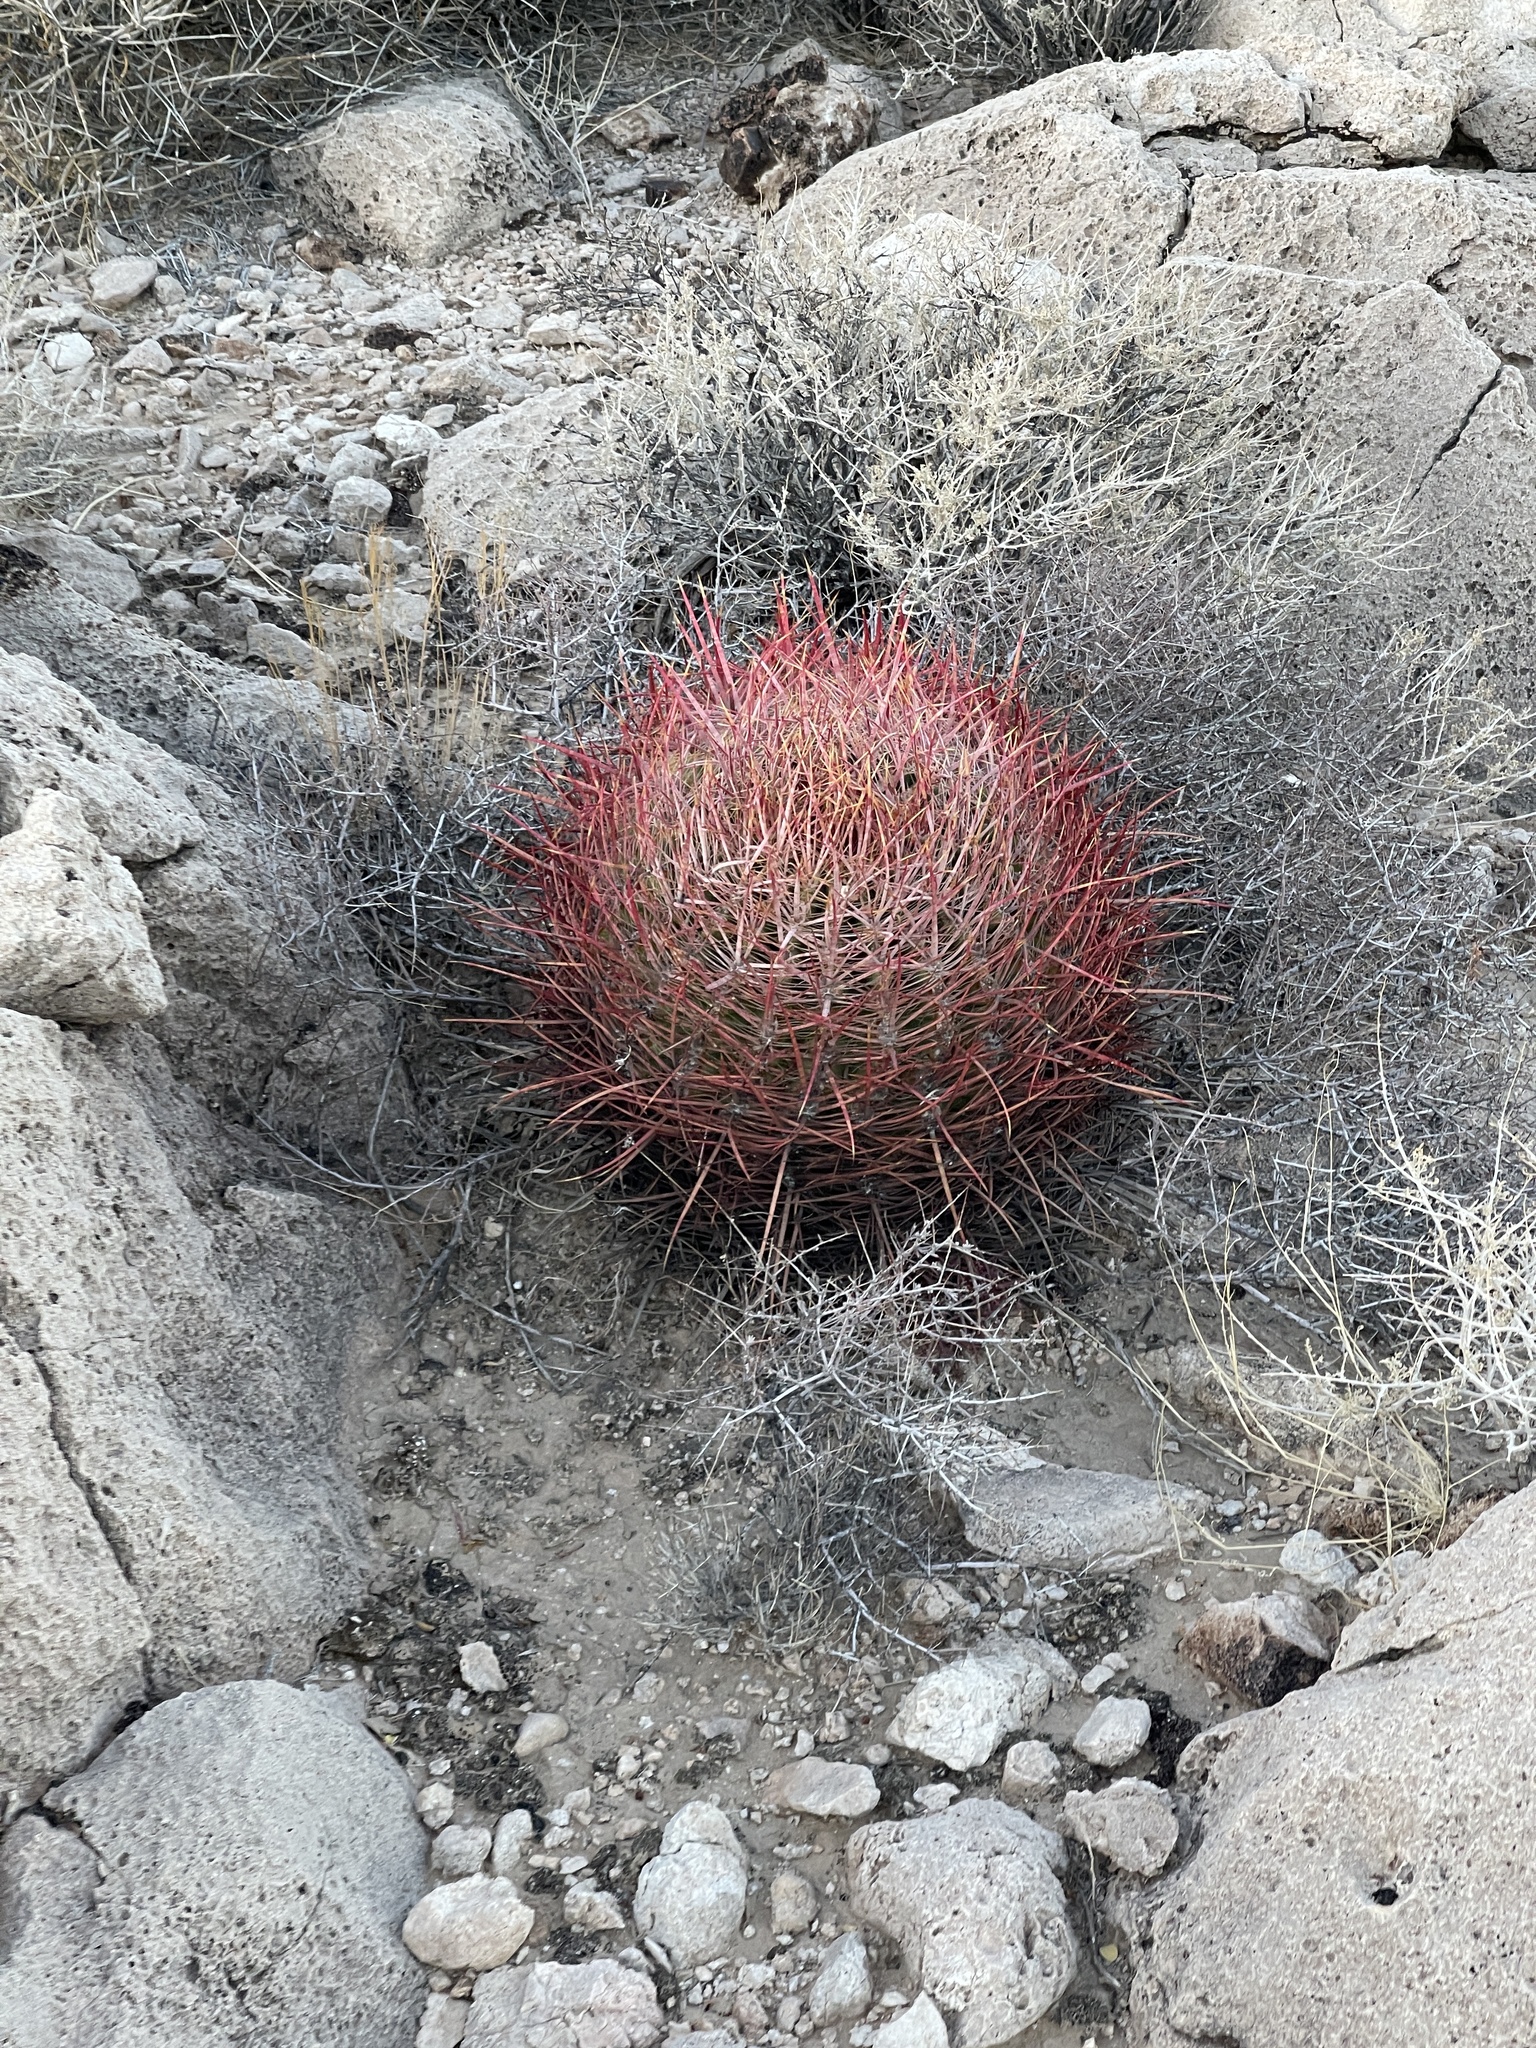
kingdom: Plantae
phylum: Tracheophyta
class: Magnoliopsida
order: Caryophyllales
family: Cactaceae
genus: Ferocactus
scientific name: Ferocactus cylindraceus
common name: California barrel cactus
